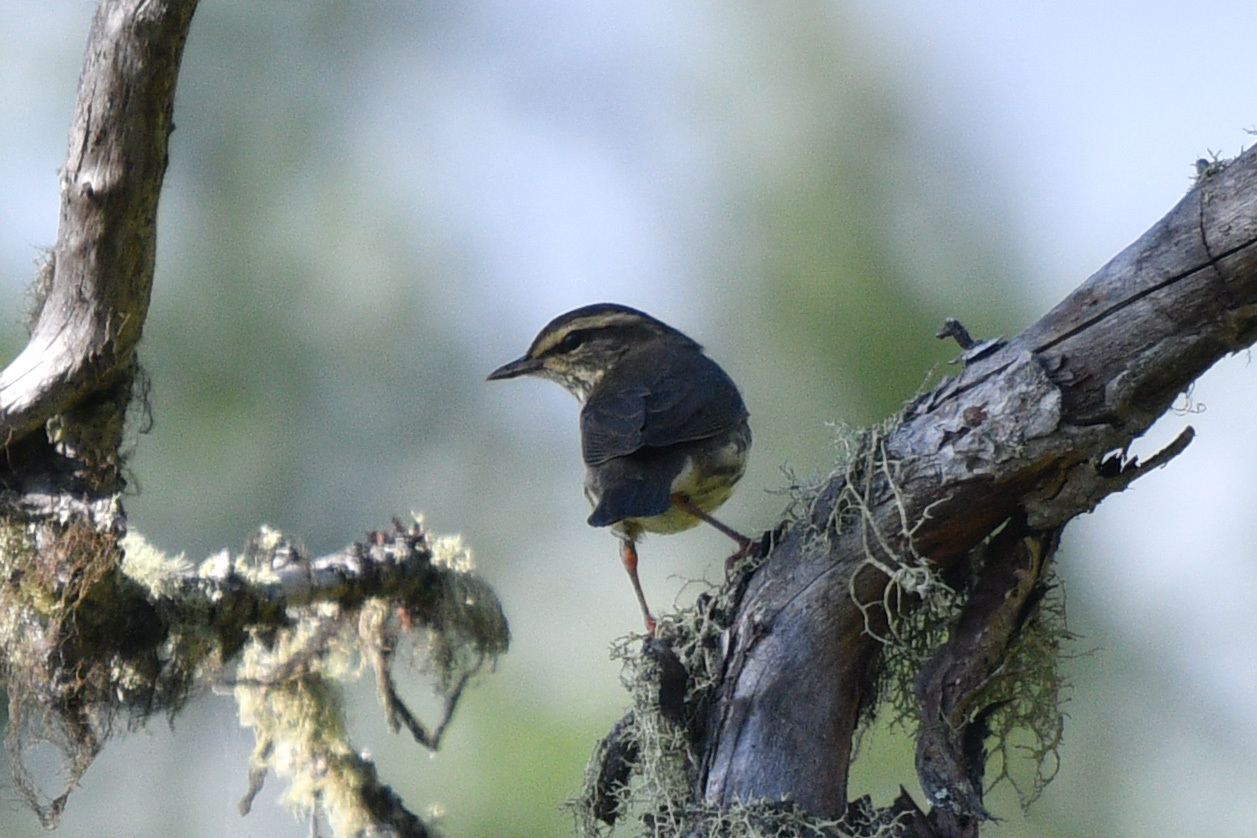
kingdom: Animalia
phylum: Chordata
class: Aves
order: Passeriformes
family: Parulidae
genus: Parkesia
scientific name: Parkesia noveboracensis
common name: Northern waterthrush
